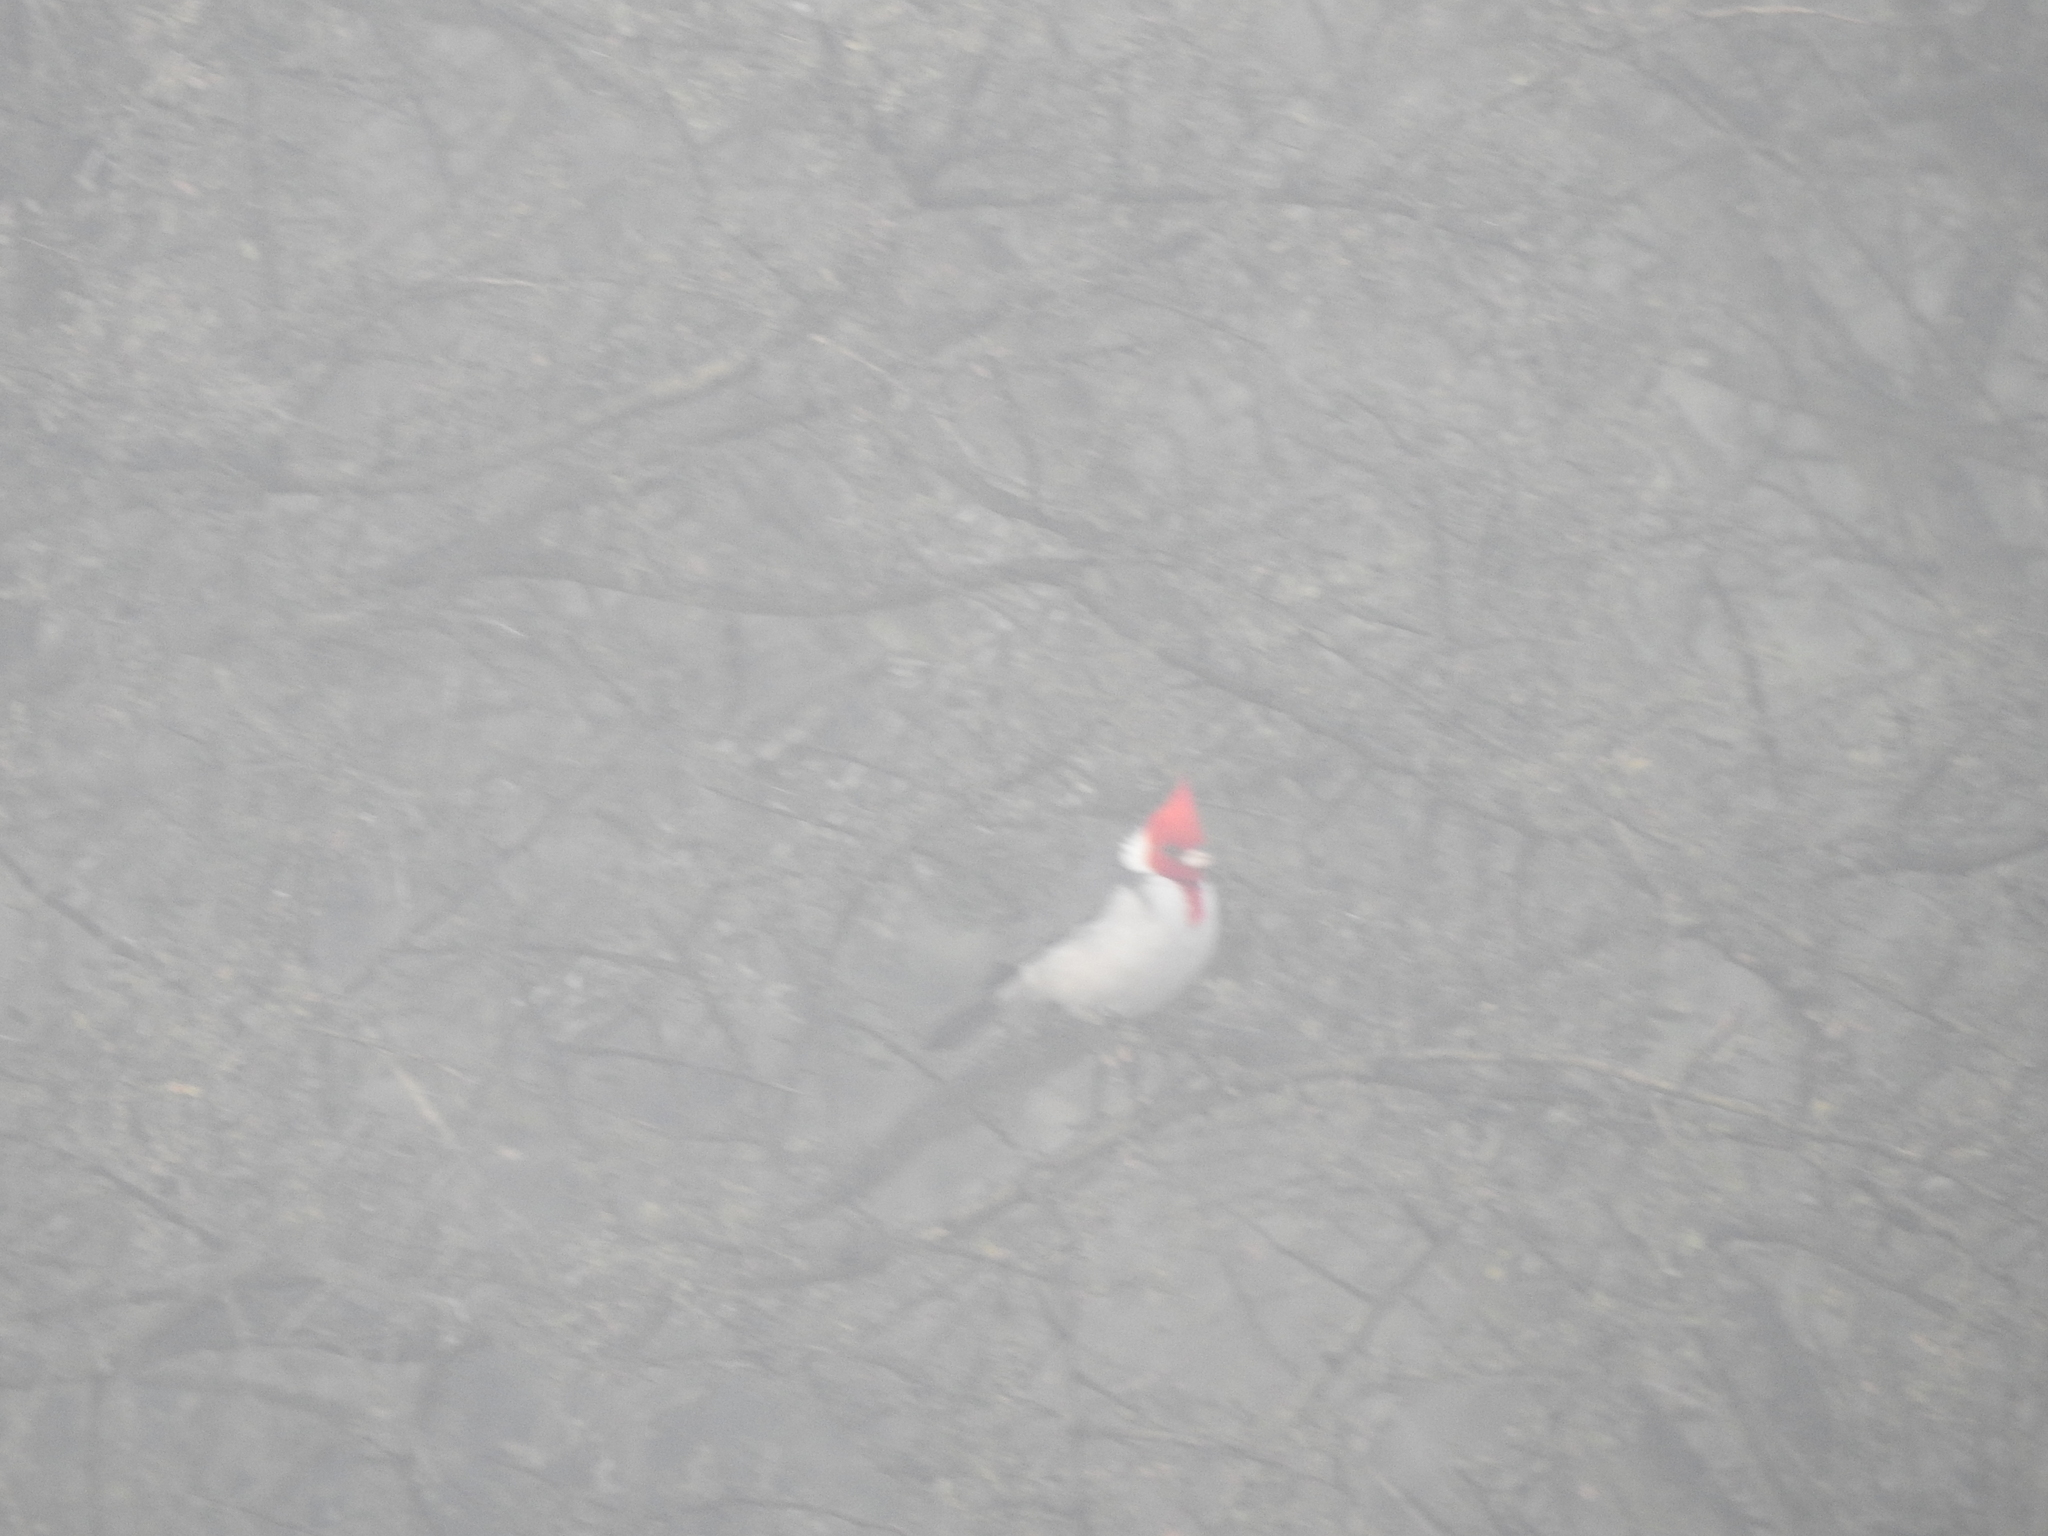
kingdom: Animalia
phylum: Chordata
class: Aves
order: Passeriformes
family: Thraupidae
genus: Paroaria
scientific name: Paroaria coronata
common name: Red-crested cardinal
